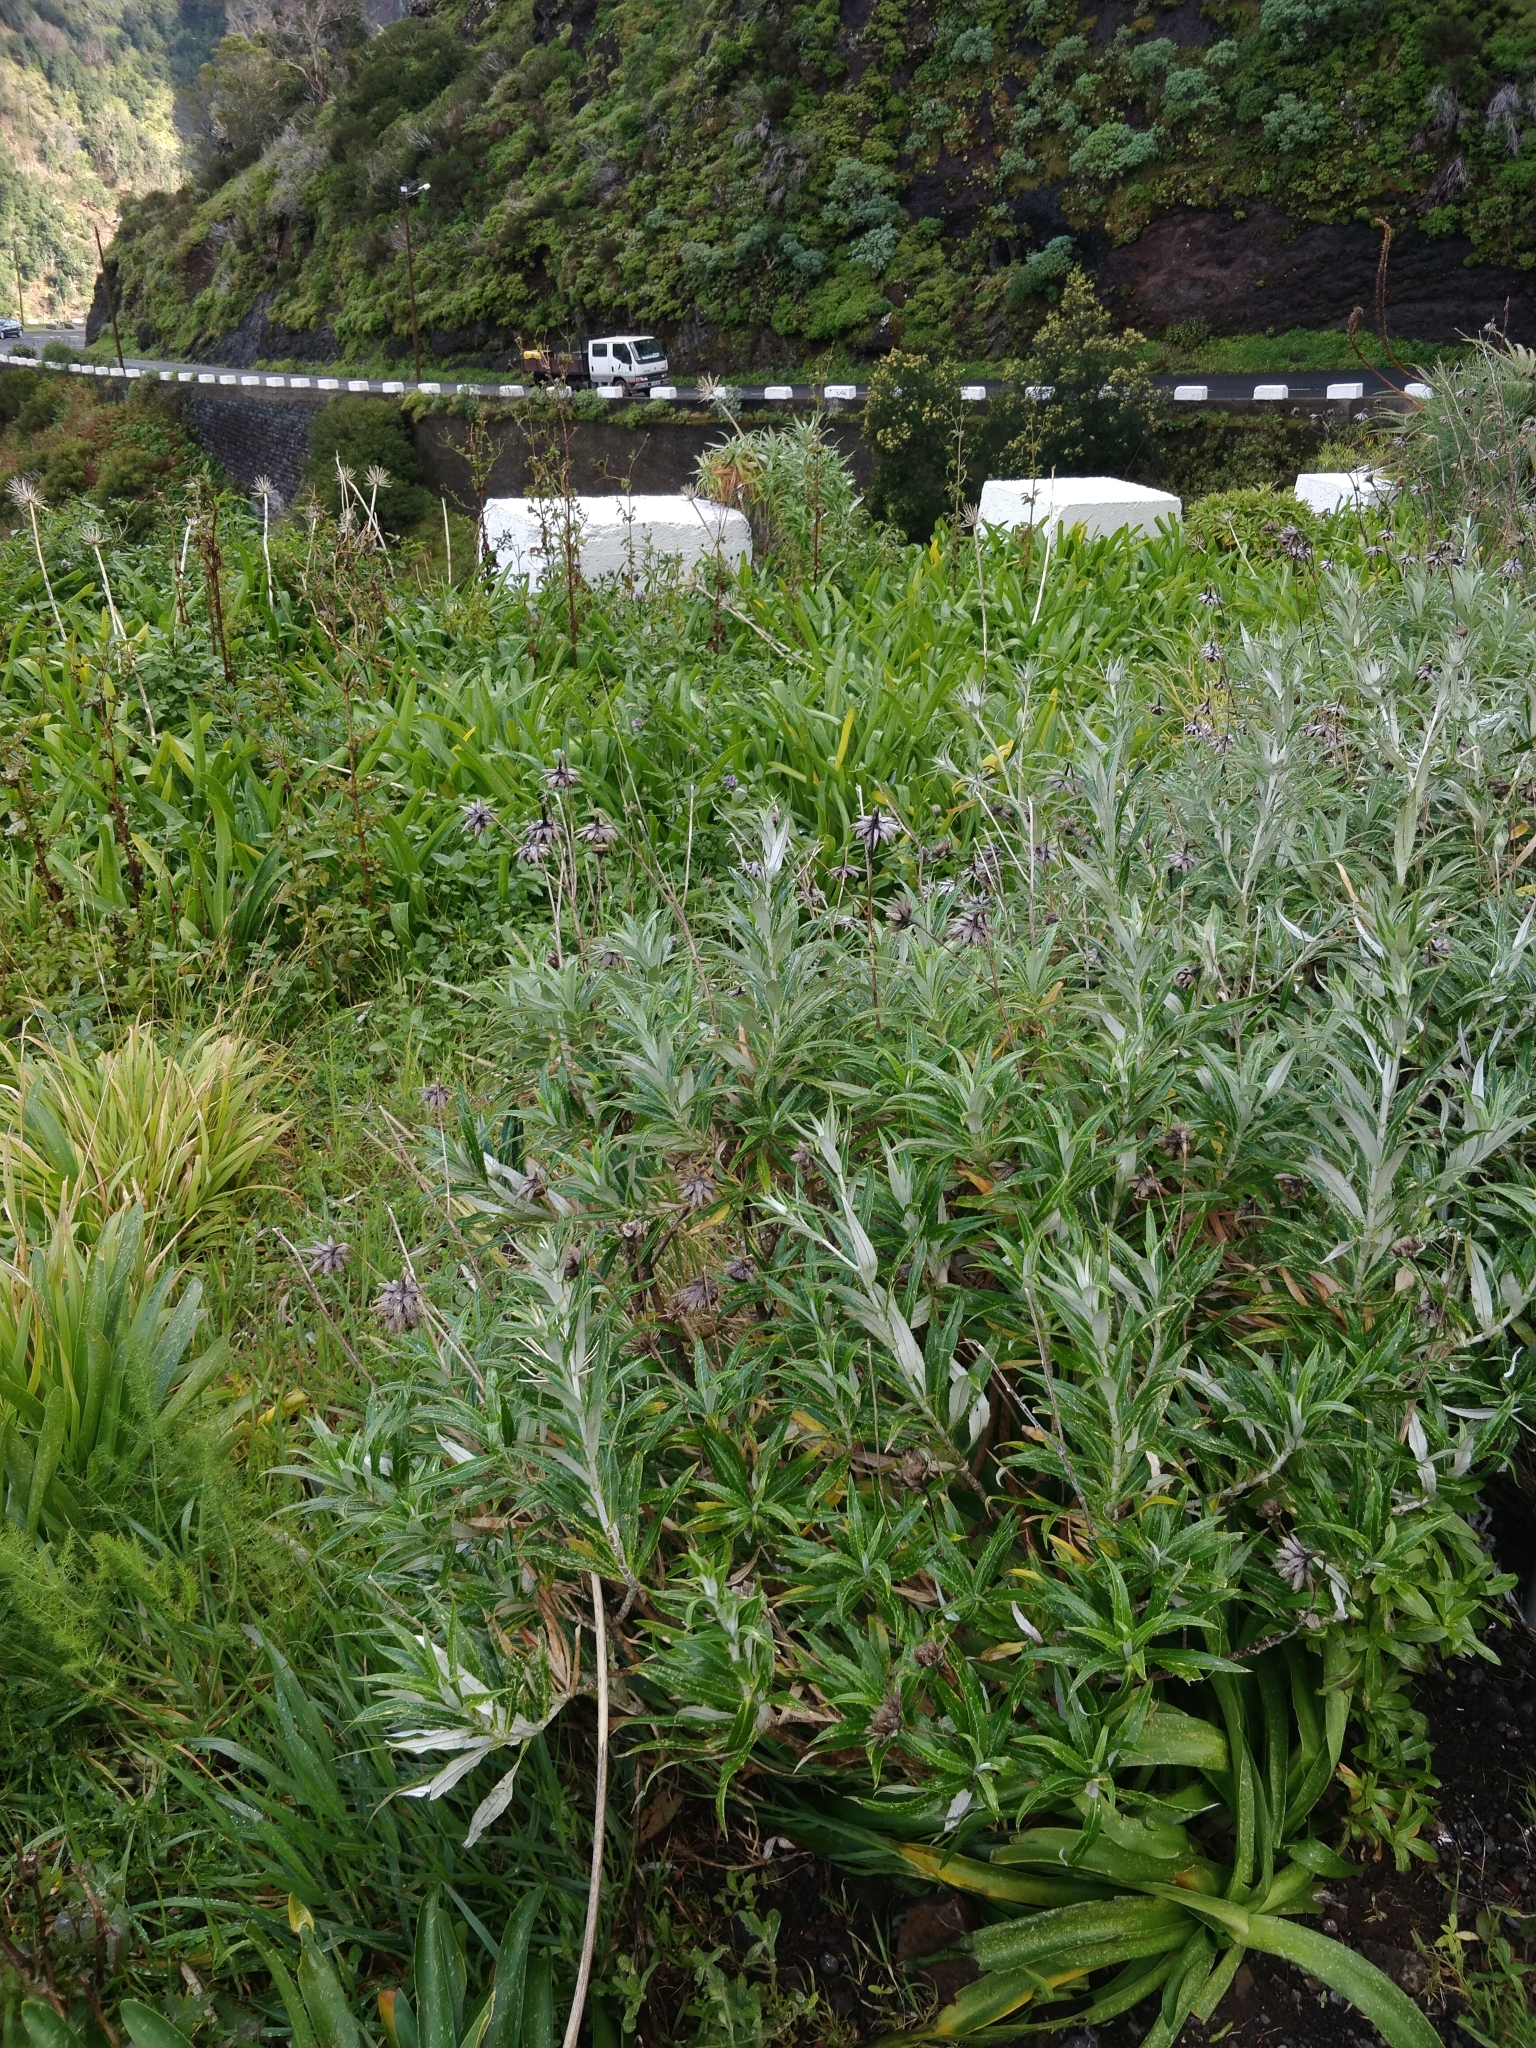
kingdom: Plantae
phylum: Tracheophyta
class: Magnoliopsida
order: Asterales
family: Asteraceae
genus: Carlina
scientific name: Carlina salicifolia
